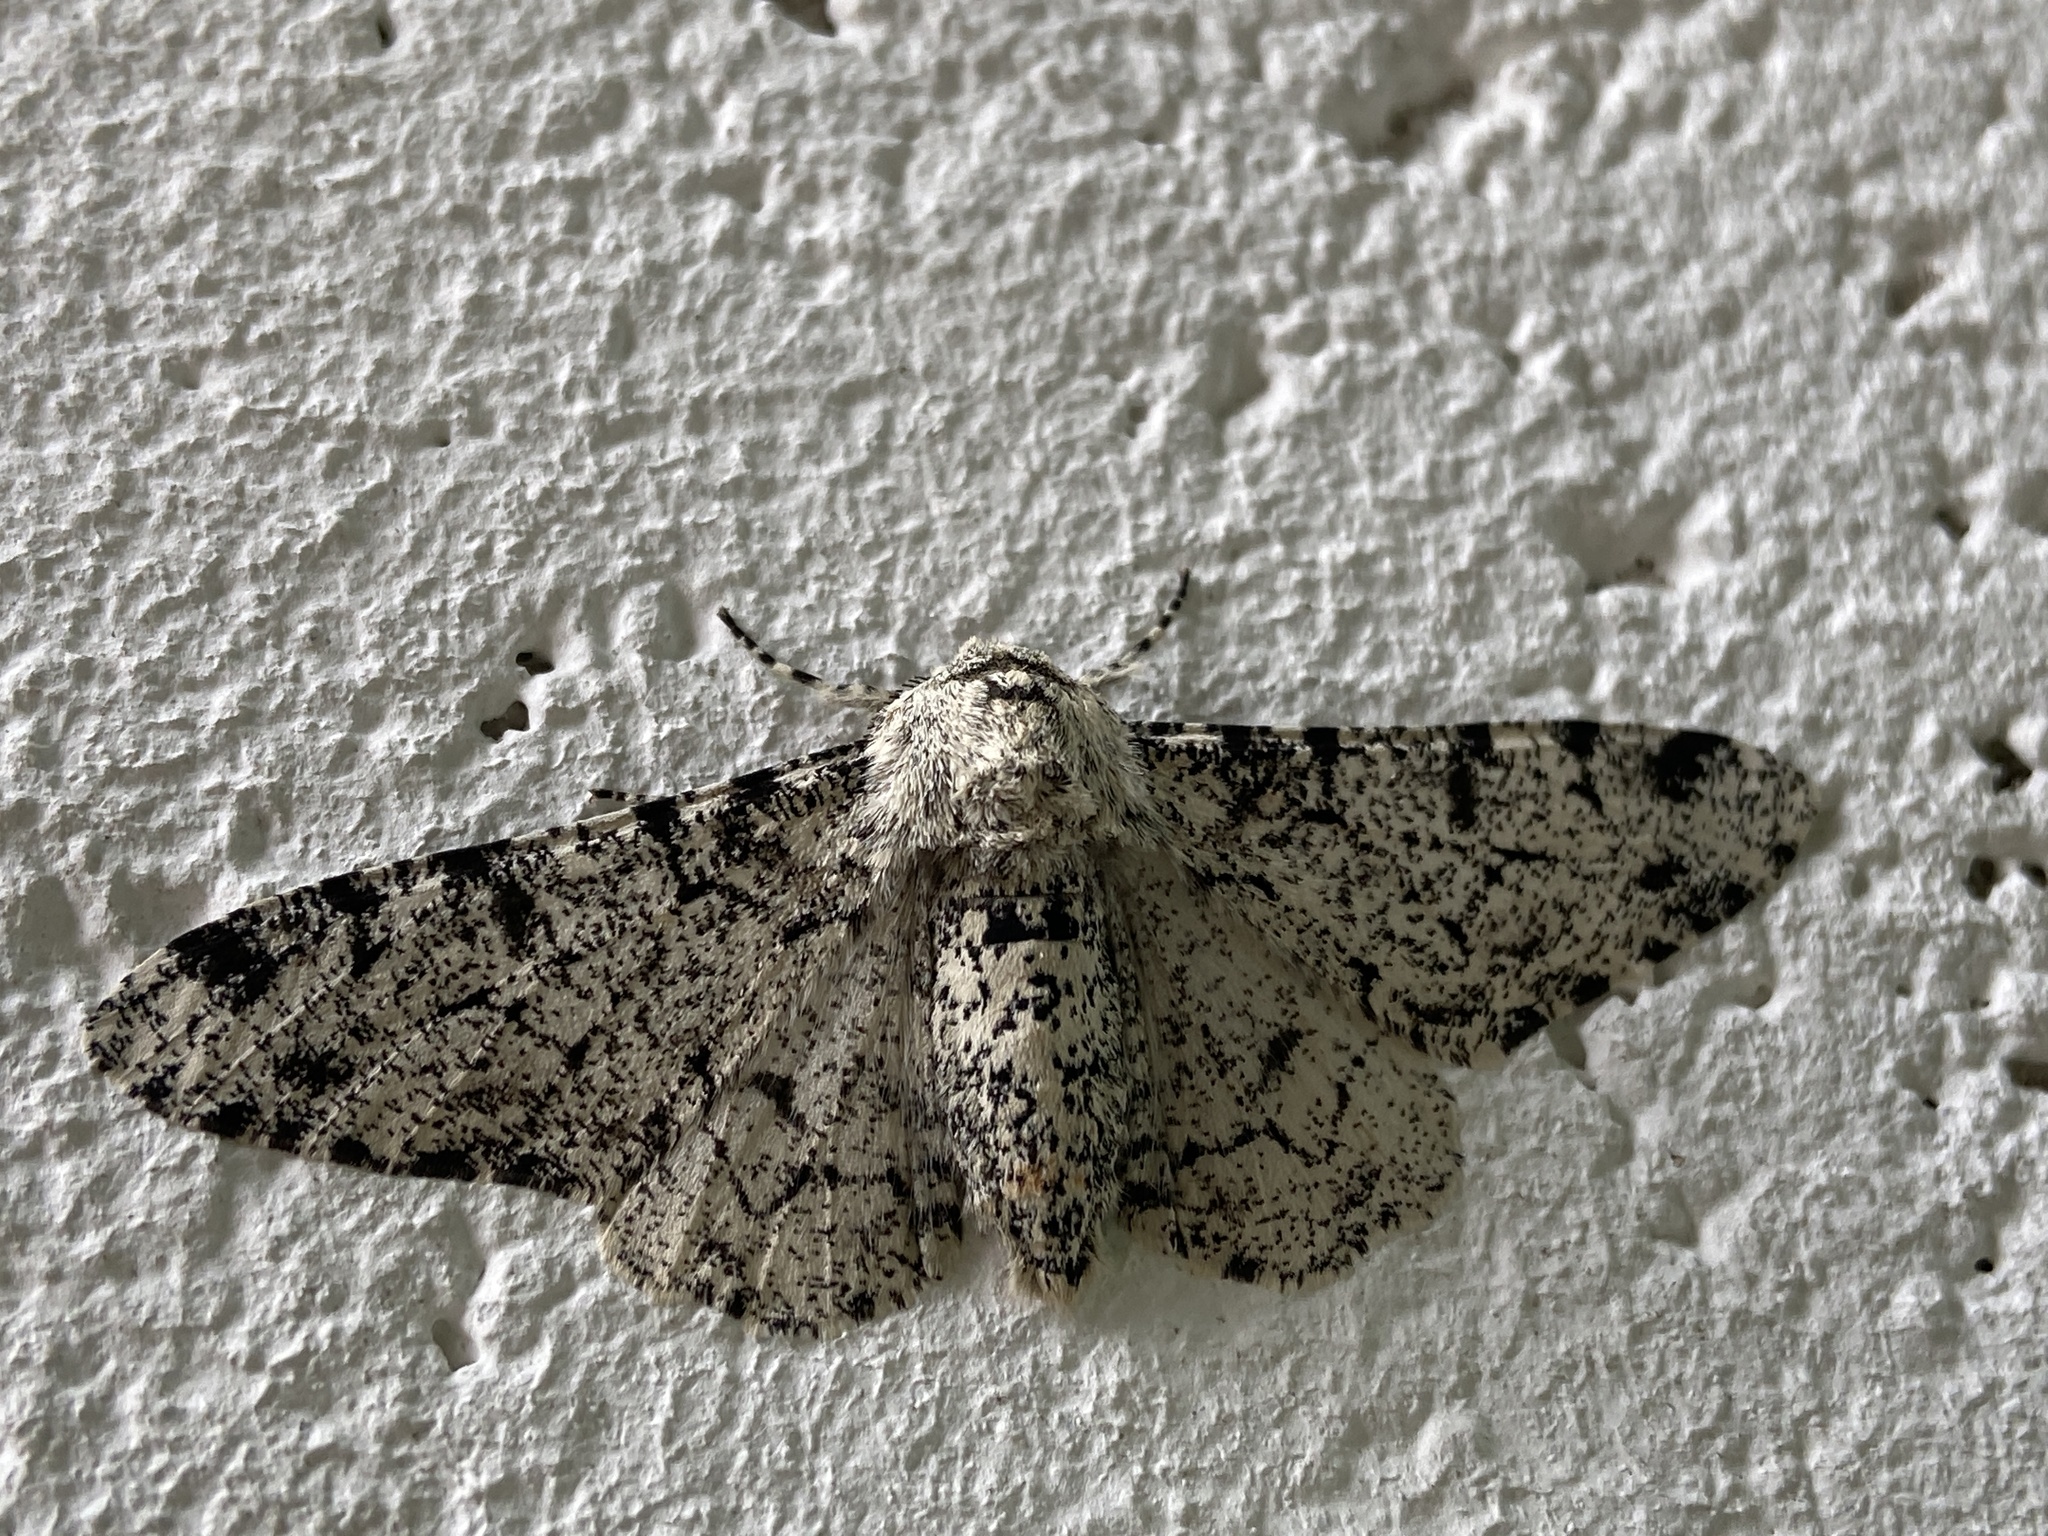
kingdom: Animalia
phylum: Arthropoda
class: Insecta
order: Lepidoptera
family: Geometridae
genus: Biston
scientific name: Biston betularia
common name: Peppered moth
